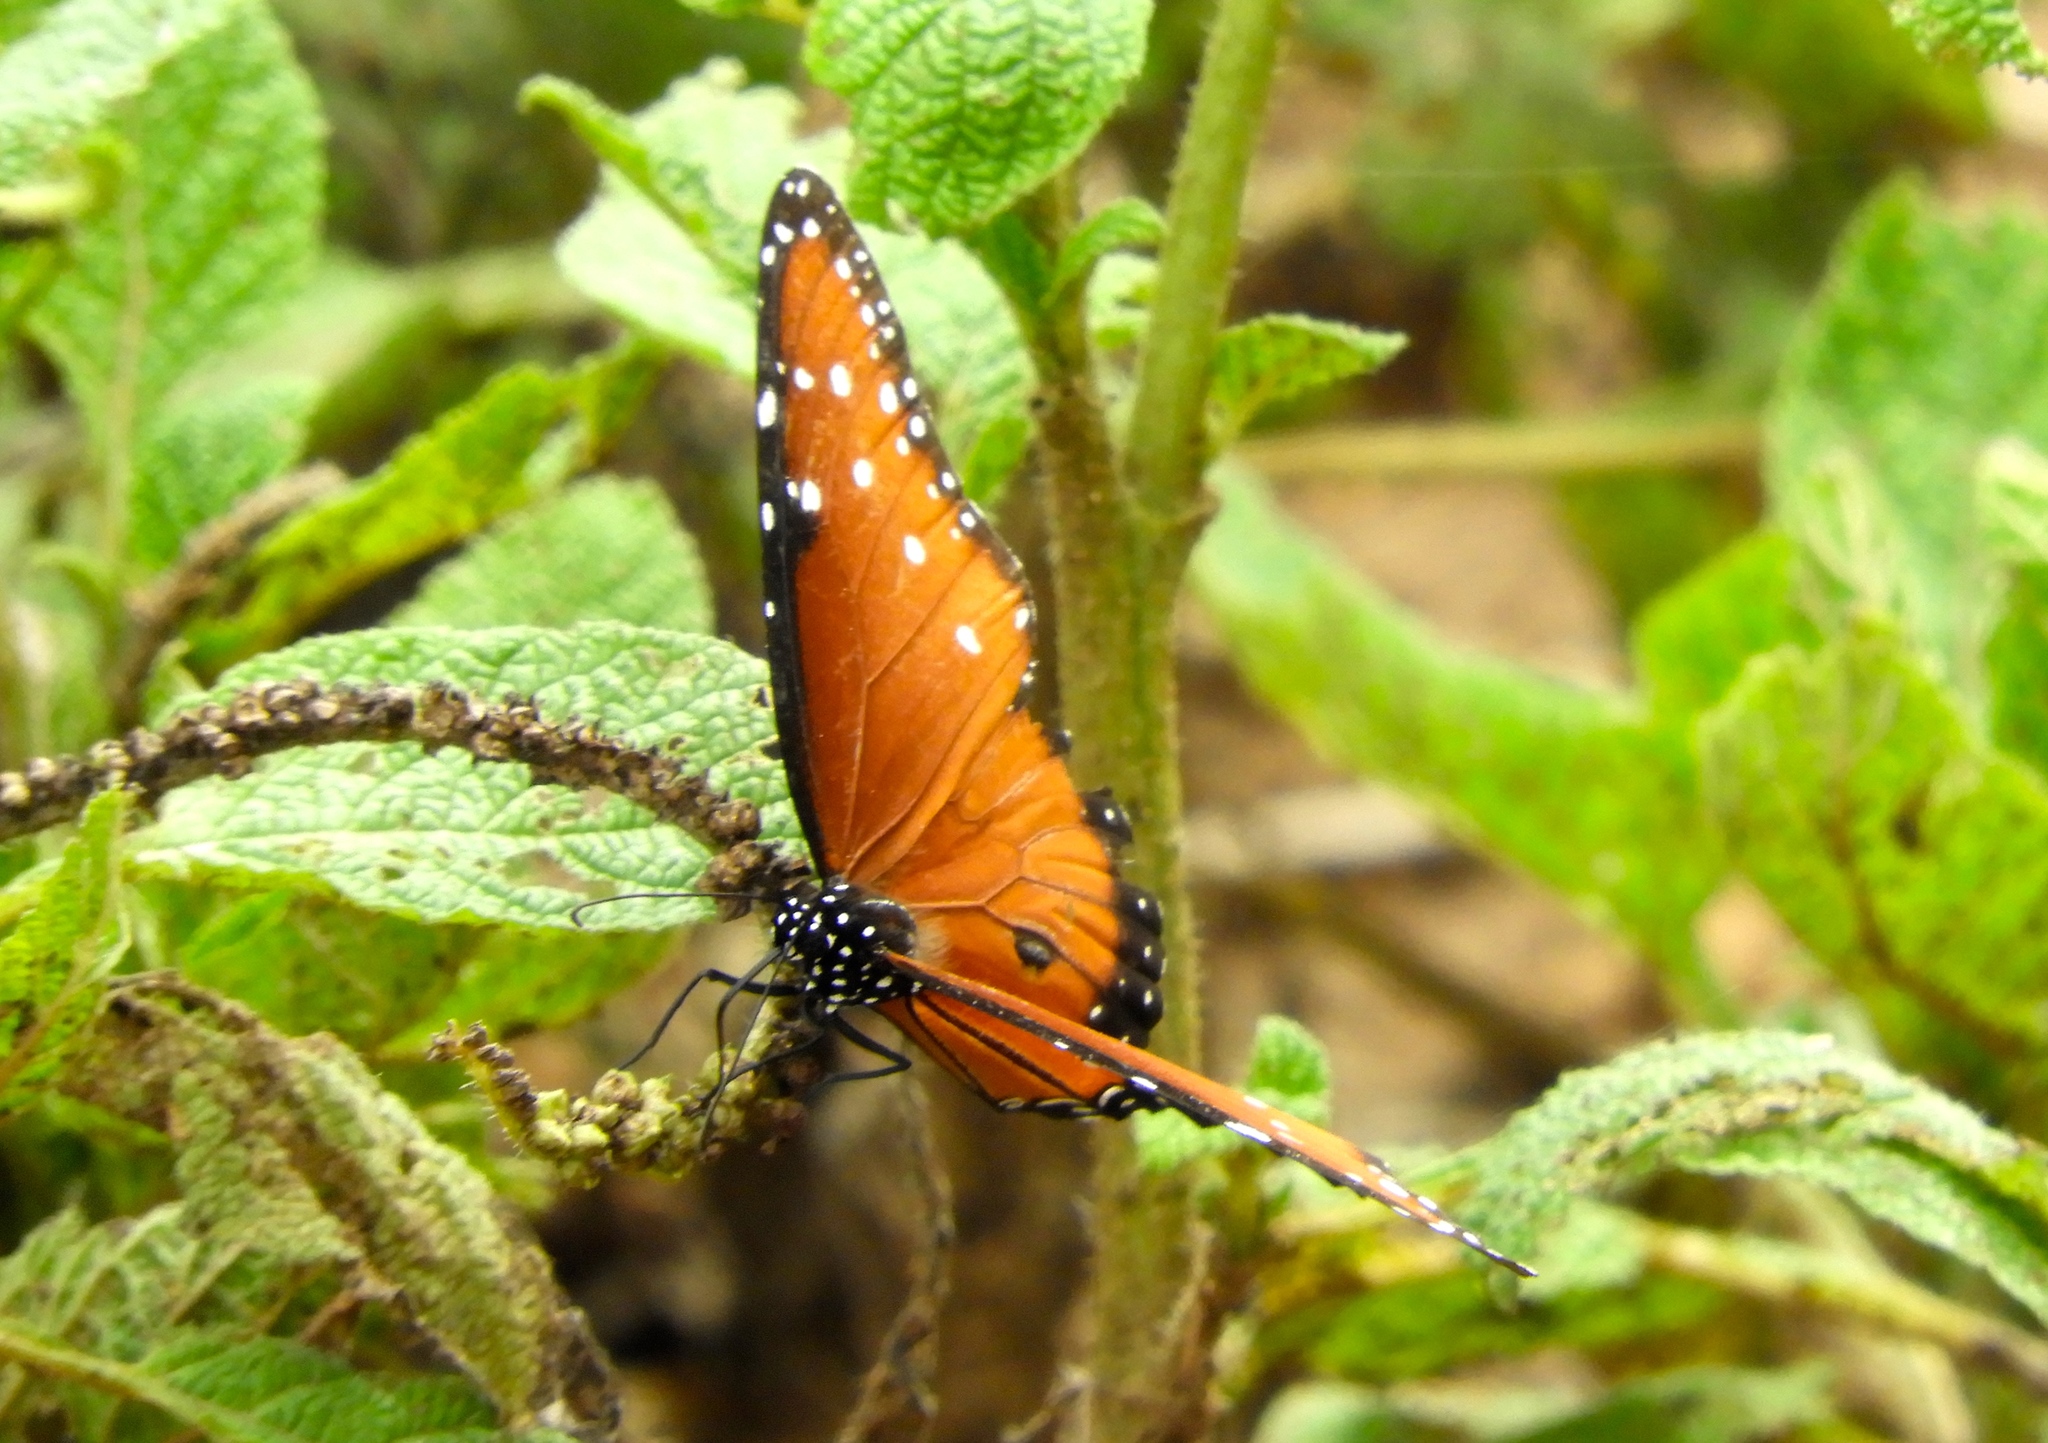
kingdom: Animalia
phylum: Arthropoda
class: Insecta
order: Lepidoptera
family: Nymphalidae
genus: Danaus
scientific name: Danaus gilippus
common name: Queen
